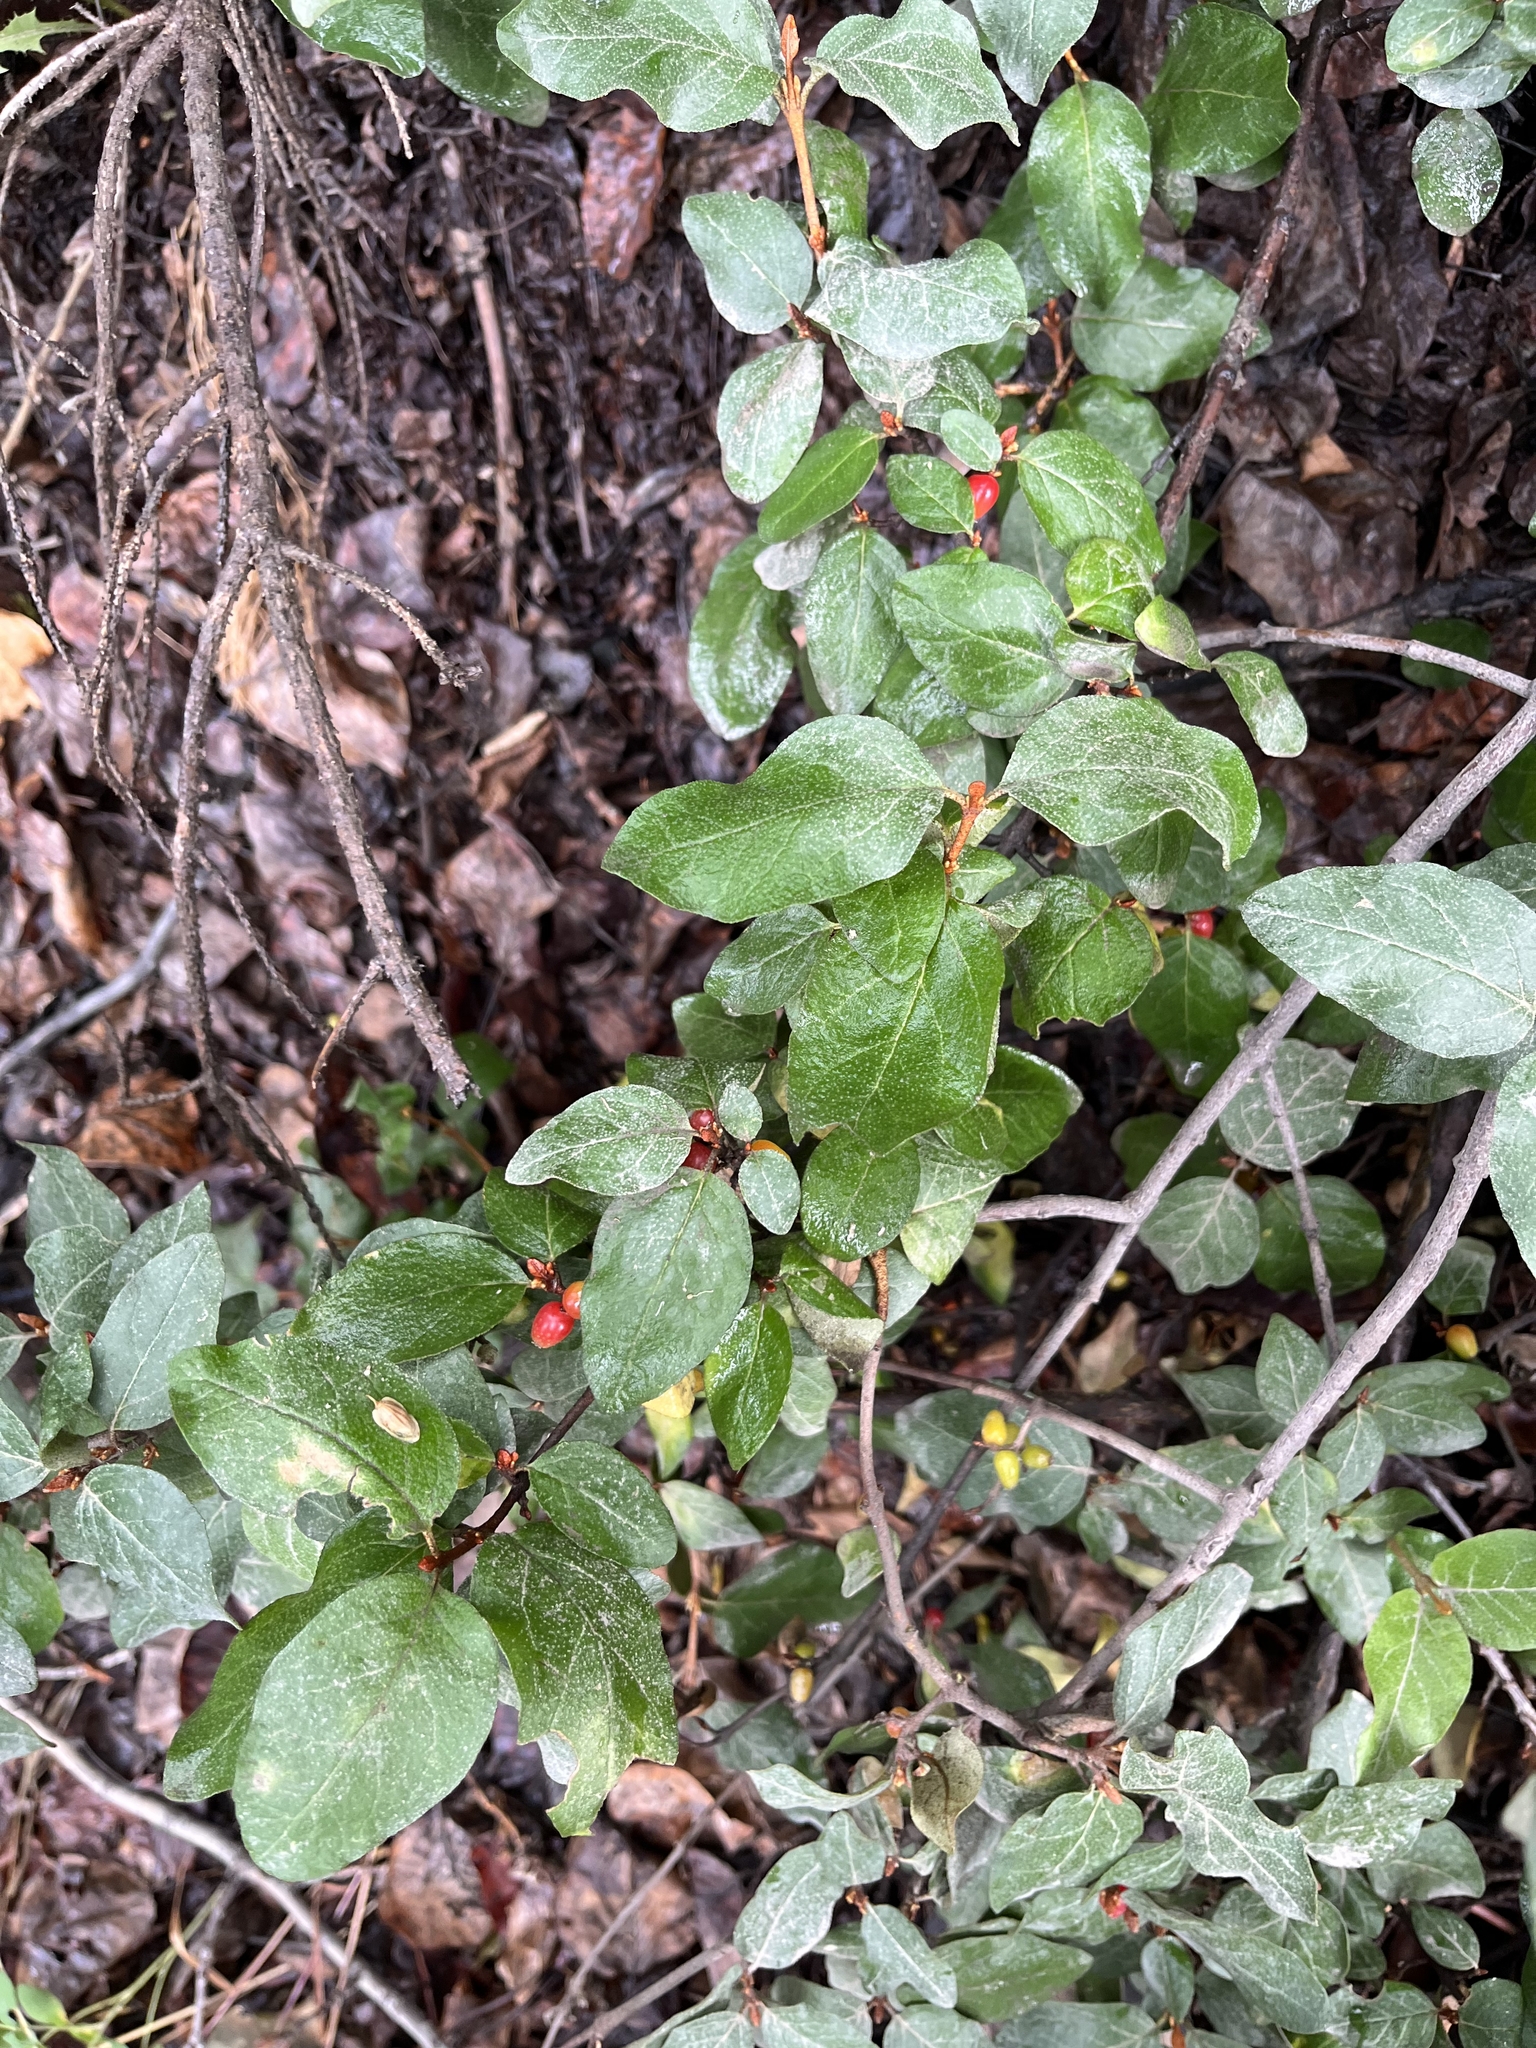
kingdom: Plantae
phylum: Tracheophyta
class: Magnoliopsida
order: Rosales
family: Elaeagnaceae
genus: Shepherdia
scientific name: Shepherdia canadensis
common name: Soapberry
